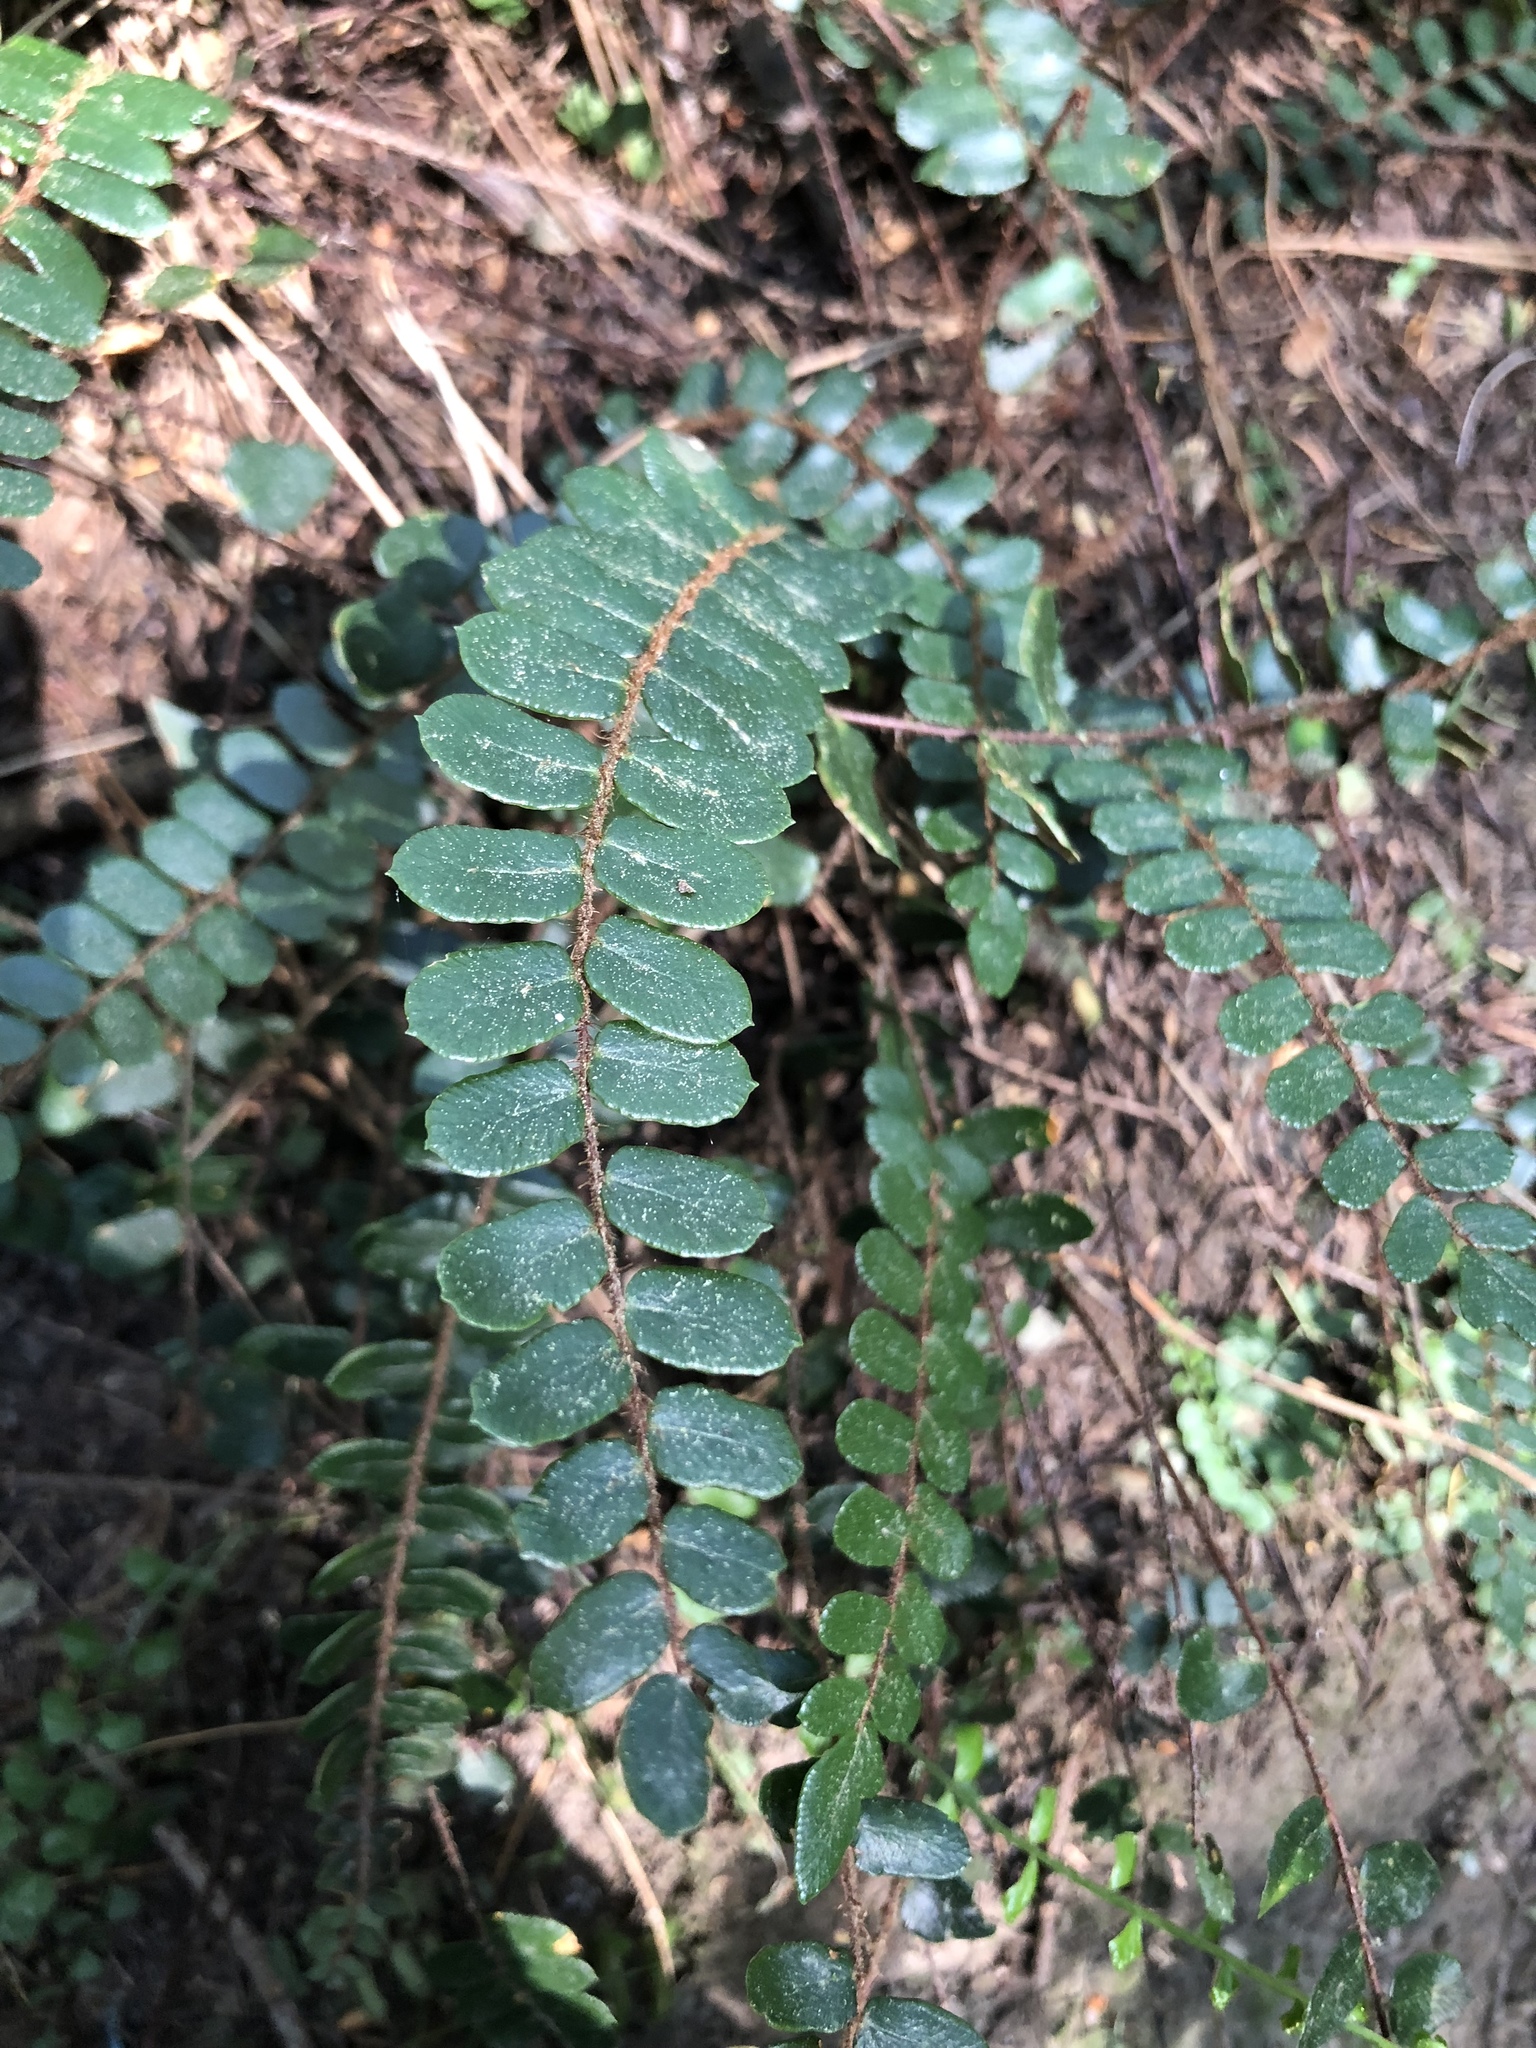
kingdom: Plantae
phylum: Tracheophyta
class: Polypodiopsida
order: Polypodiales
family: Pteridaceae
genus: Pellaea
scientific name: Pellaea rotundifolia
